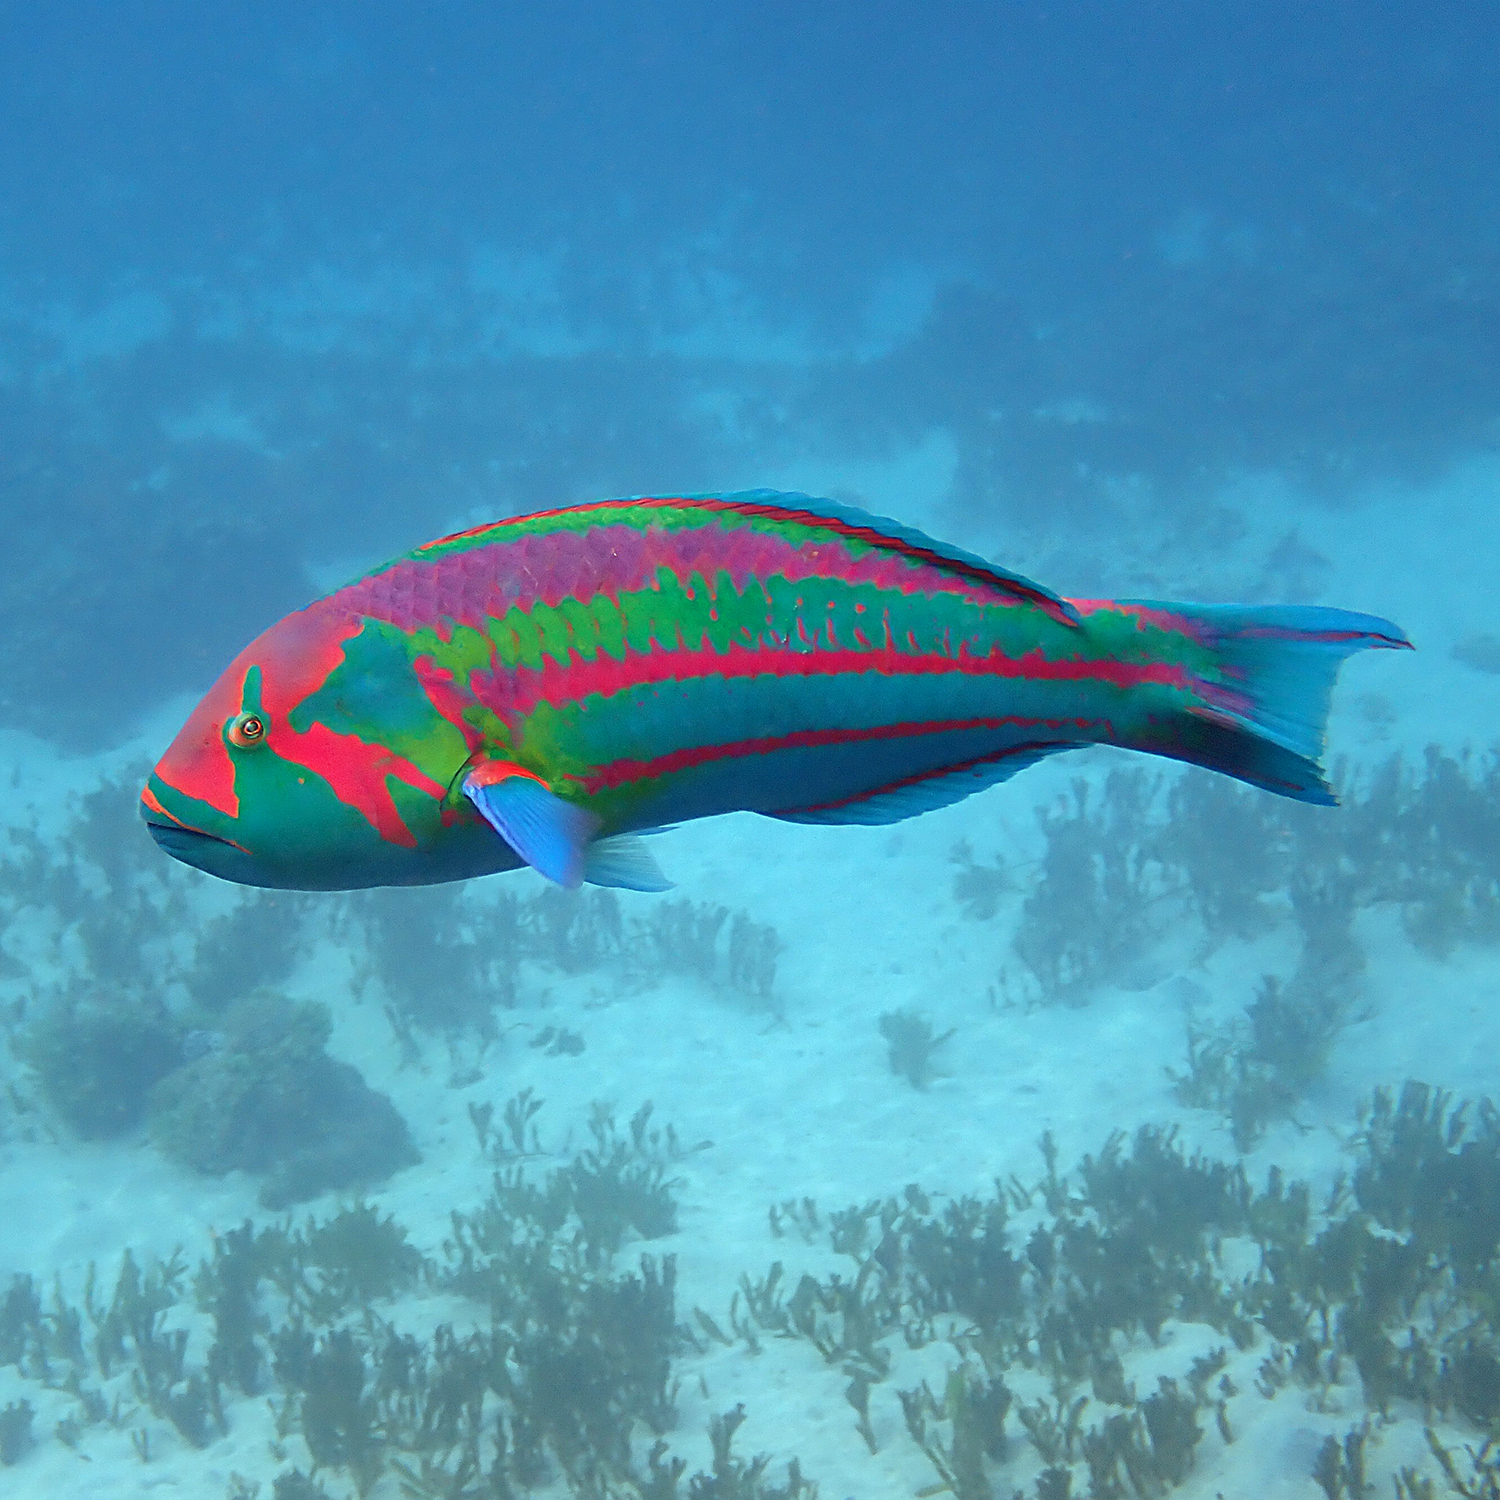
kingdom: Animalia
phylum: Chordata
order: Perciformes
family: Labridae
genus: Thalassoma
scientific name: Thalassoma purpureum
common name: Parrotfish
